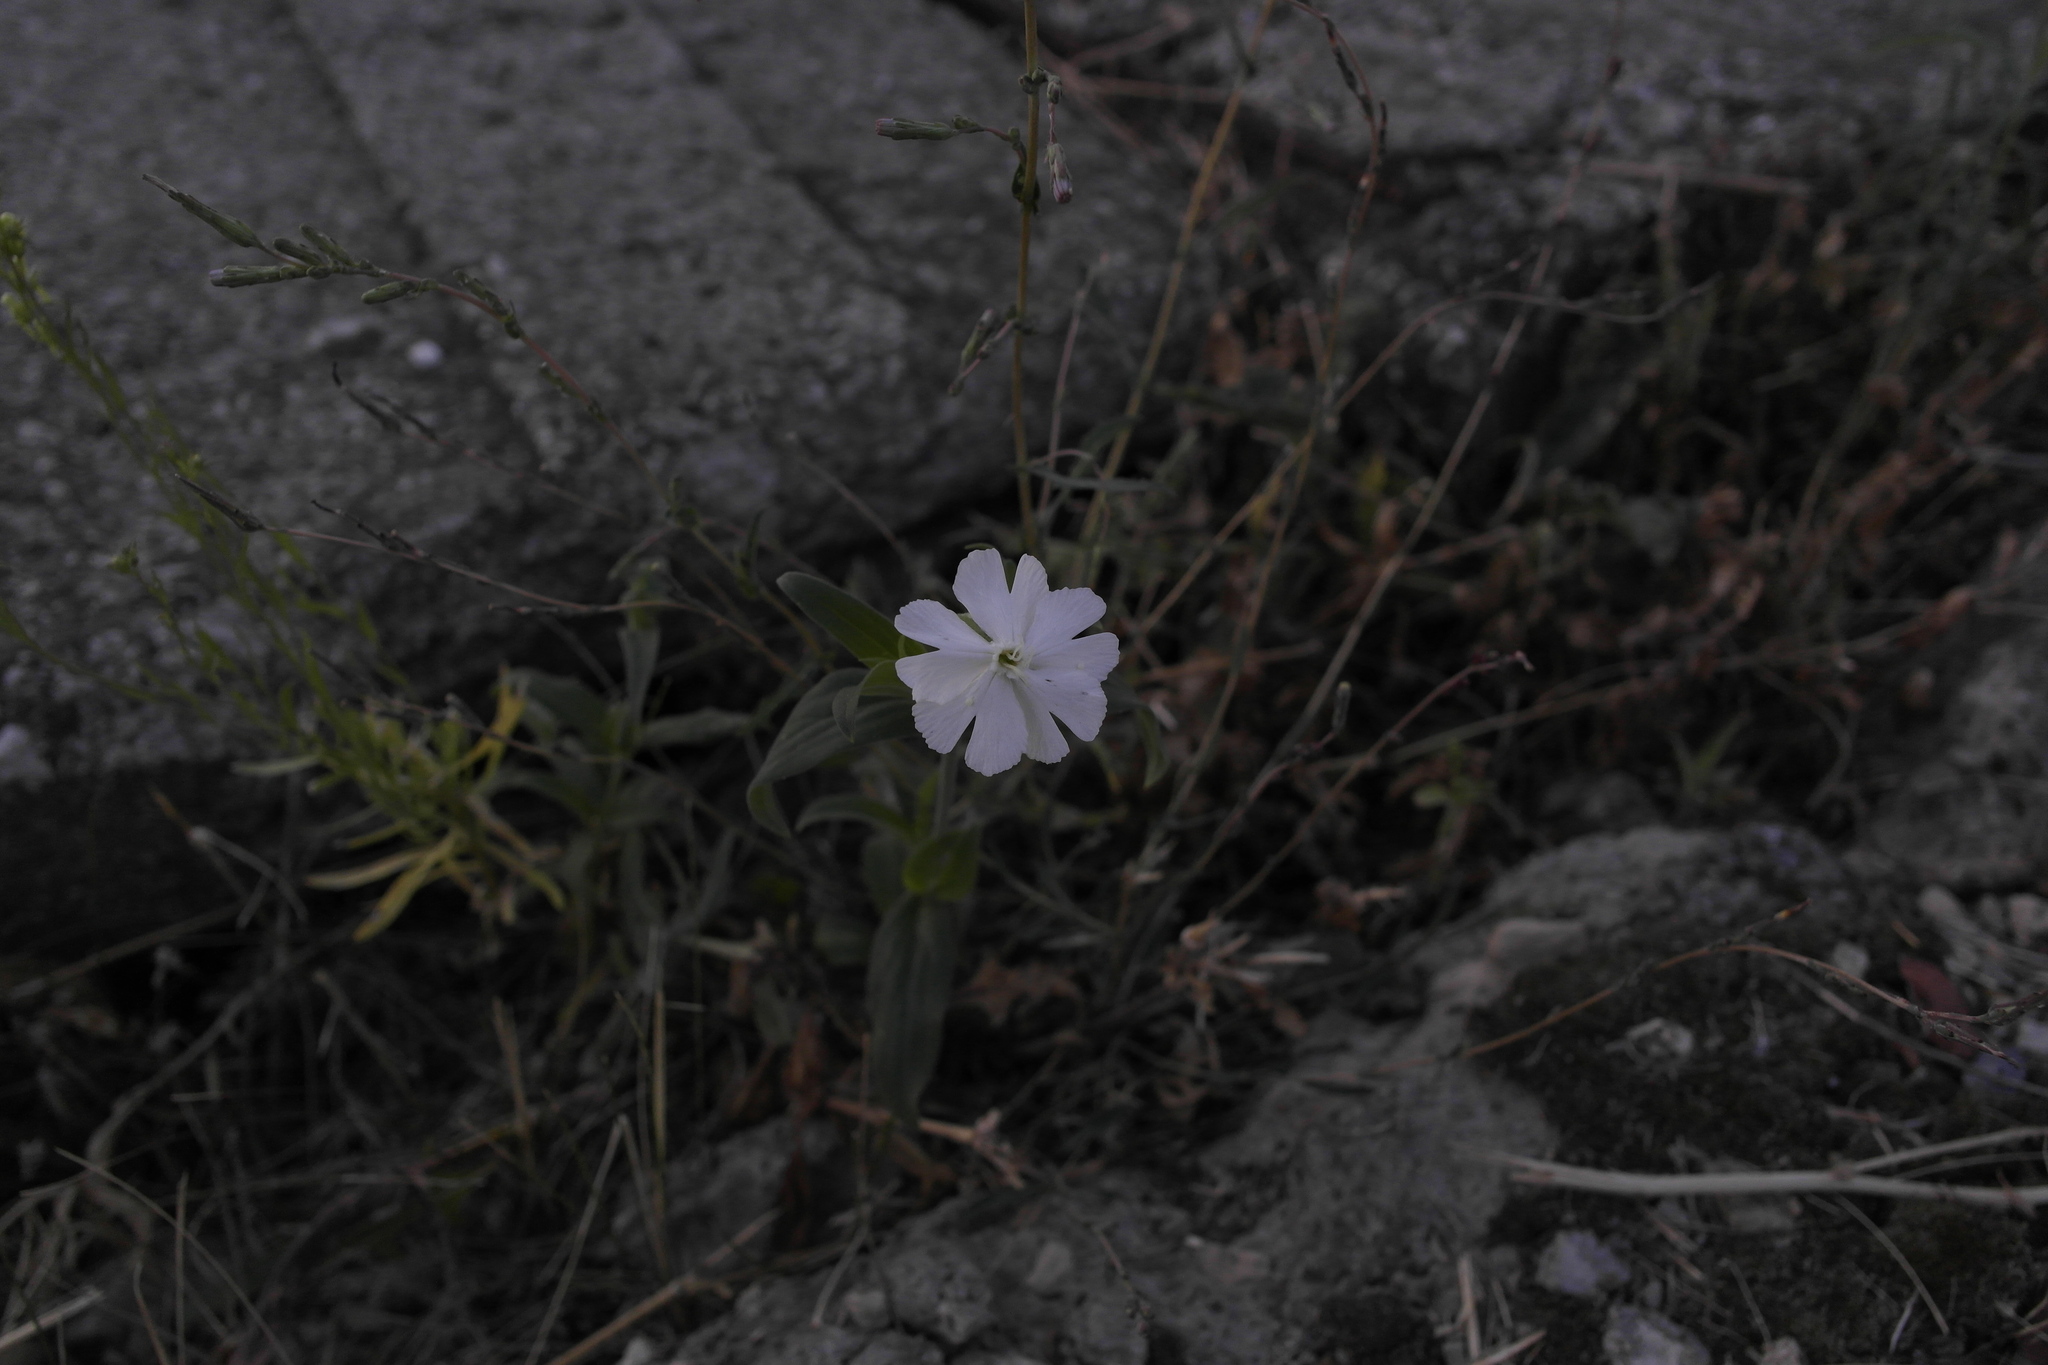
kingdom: Plantae
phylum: Tracheophyta
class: Magnoliopsida
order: Caryophyllales
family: Caryophyllaceae
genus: Silene
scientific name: Silene latifolia
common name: White campion
